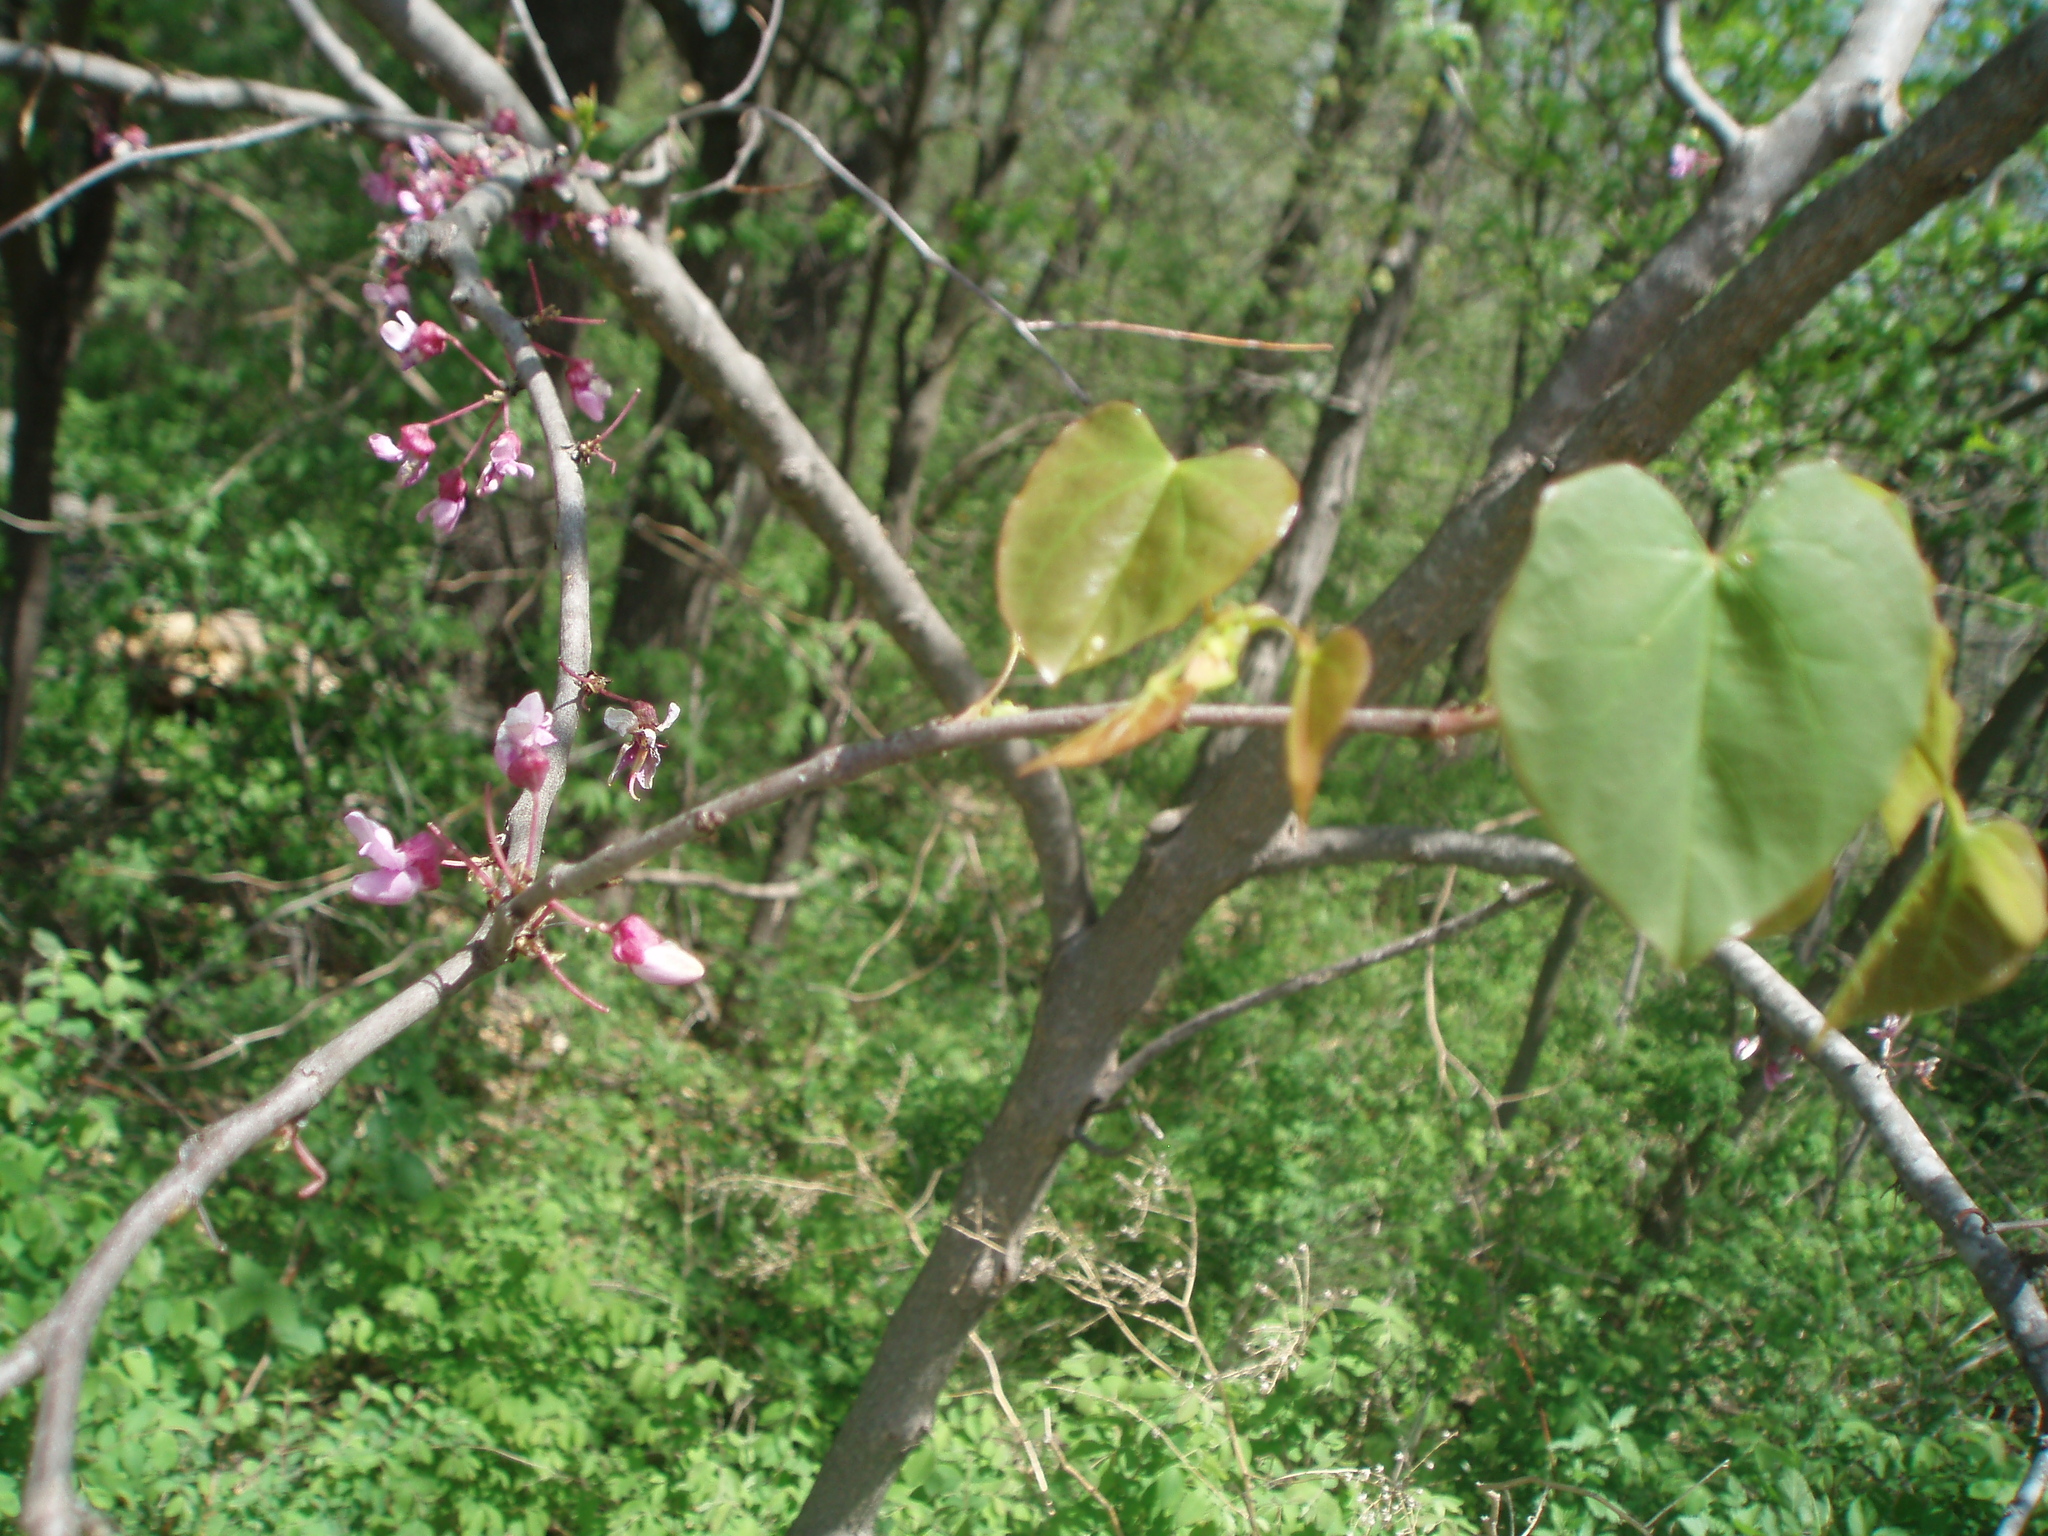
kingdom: Plantae
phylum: Tracheophyta
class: Magnoliopsida
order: Fabales
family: Fabaceae
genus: Cercis
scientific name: Cercis canadensis
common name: Eastern redbud
